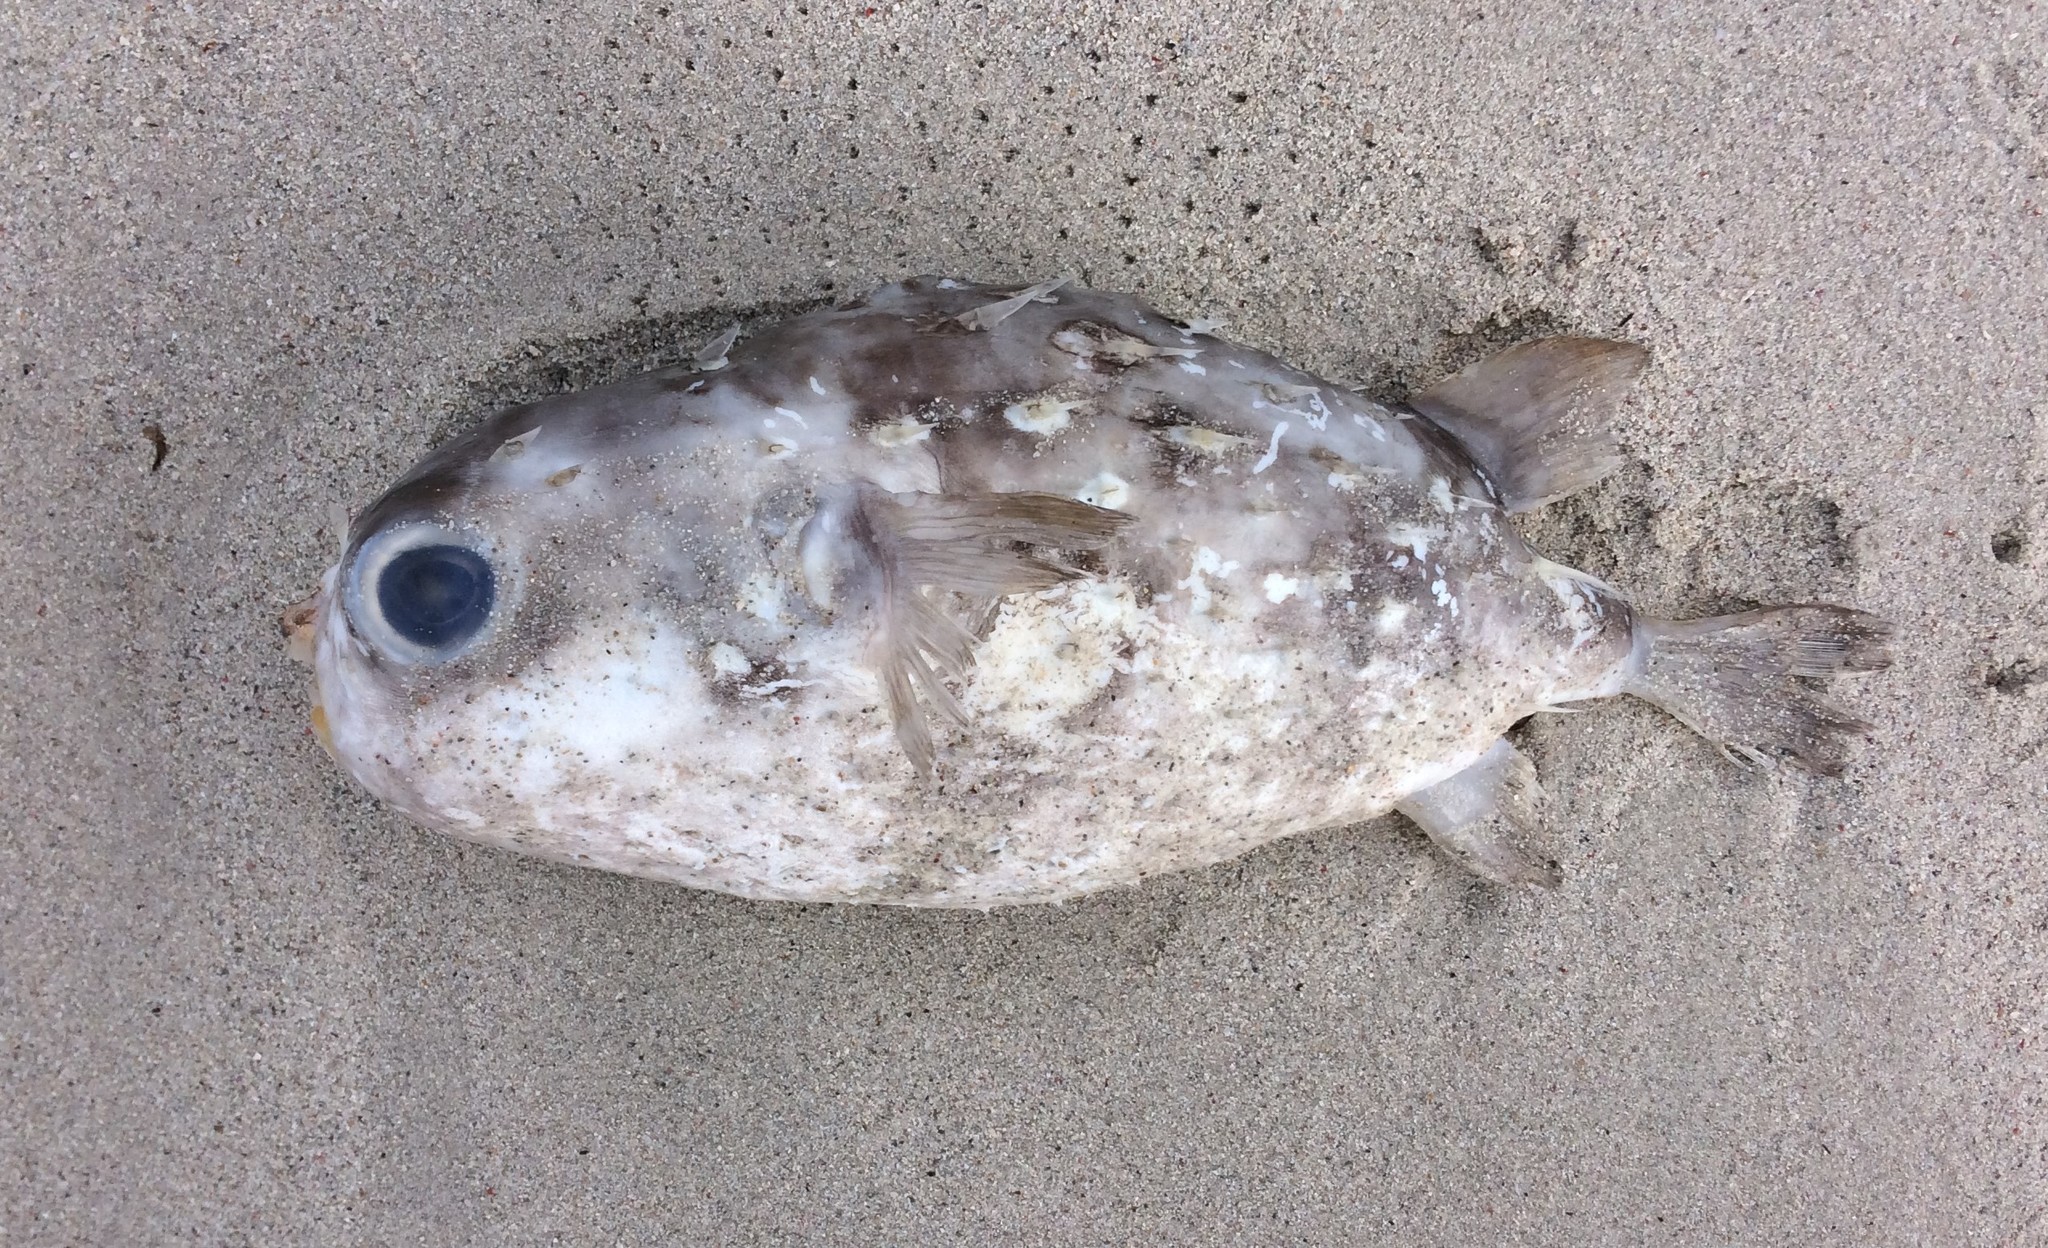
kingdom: Animalia
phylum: Chordata
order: Tetraodontiformes
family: Diodontidae
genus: Allomycterus
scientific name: Allomycterus pilatus
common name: No common name
